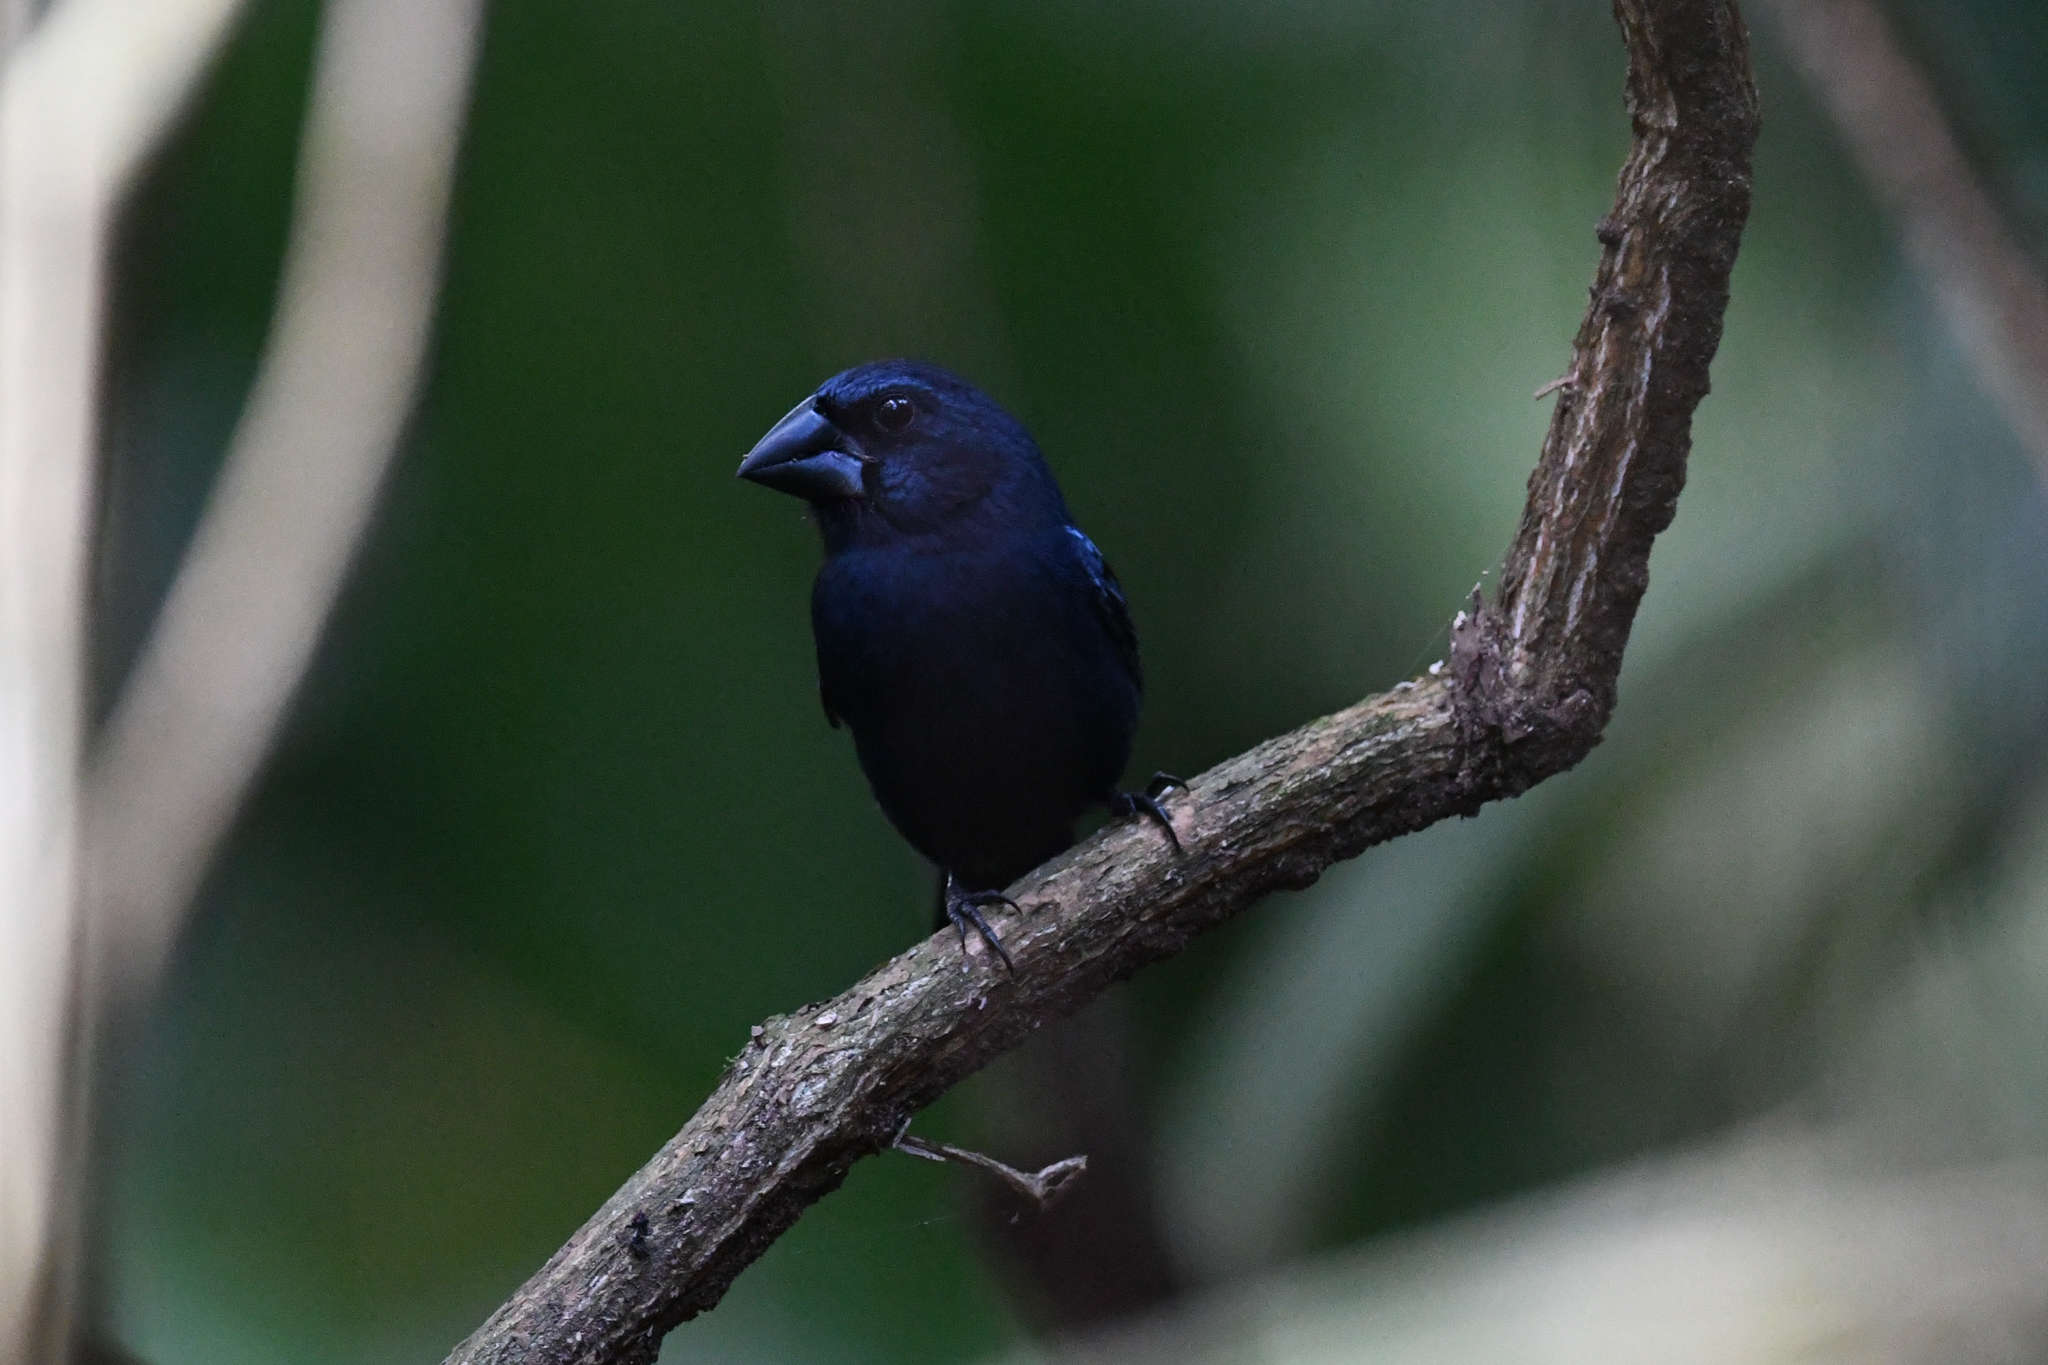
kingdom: Animalia
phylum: Chordata
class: Aves
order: Passeriformes
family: Cardinalidae
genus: Cyanocompsa
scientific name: Cyanocompsa cyanoides
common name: Blue-black grosbeak
